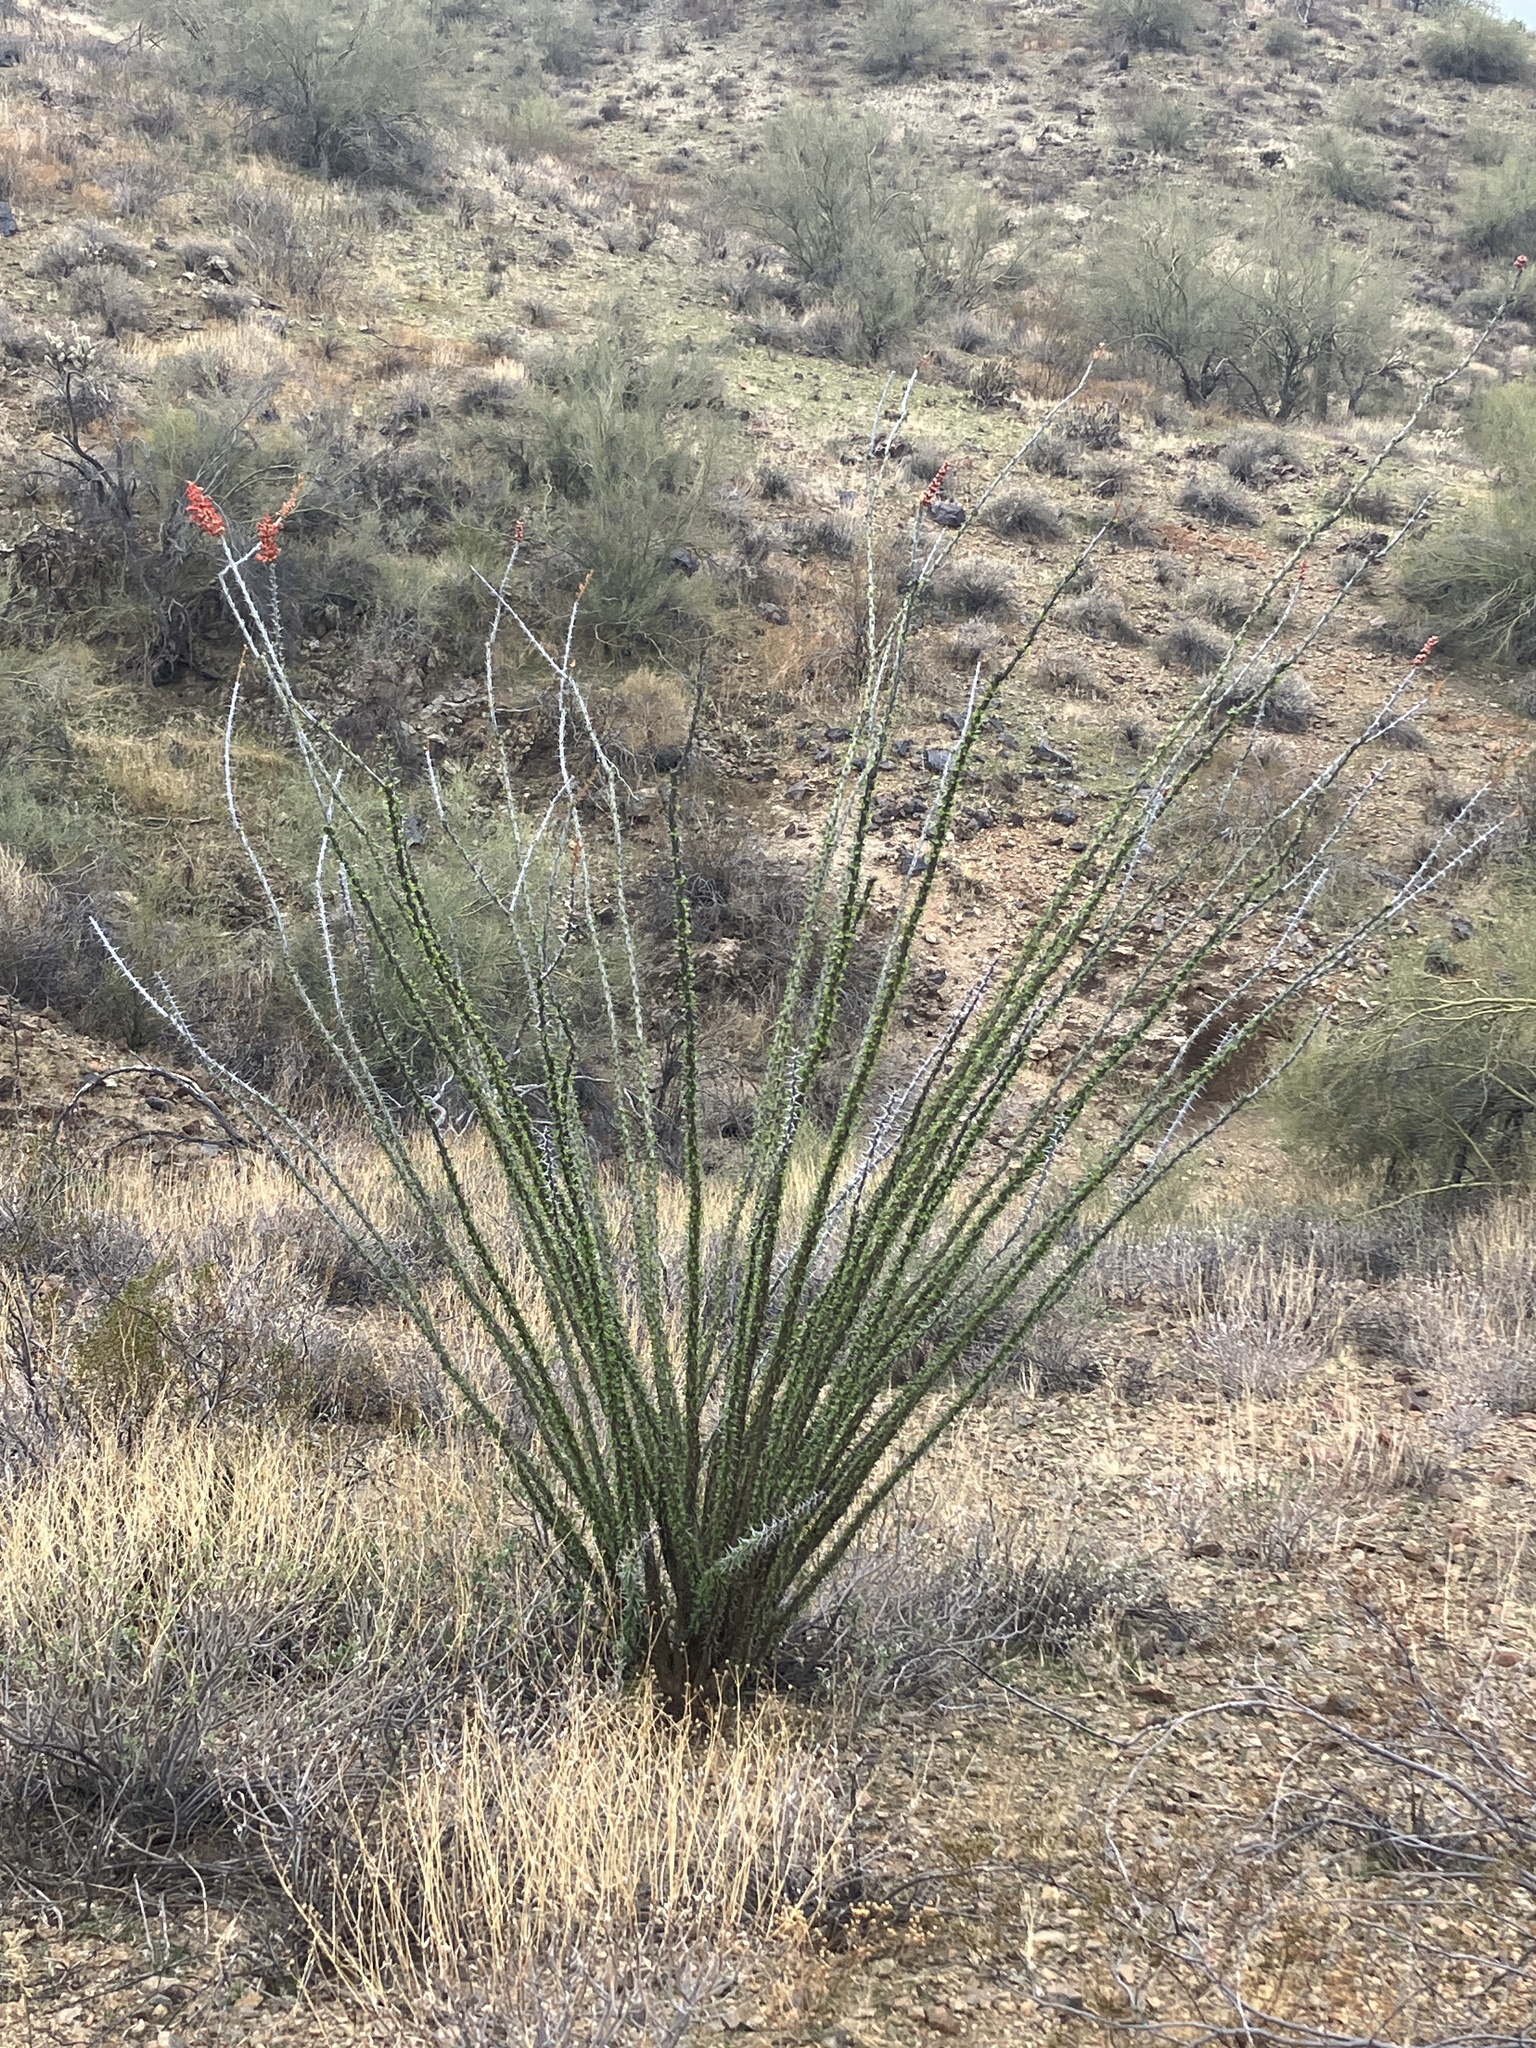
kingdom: Plantae
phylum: Tracheophyta
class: Magnoliopsida
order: Ericales
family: Fouquieriaceae
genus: Fouquieria
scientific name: Fouquieria splendens
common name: Vine-cactus
